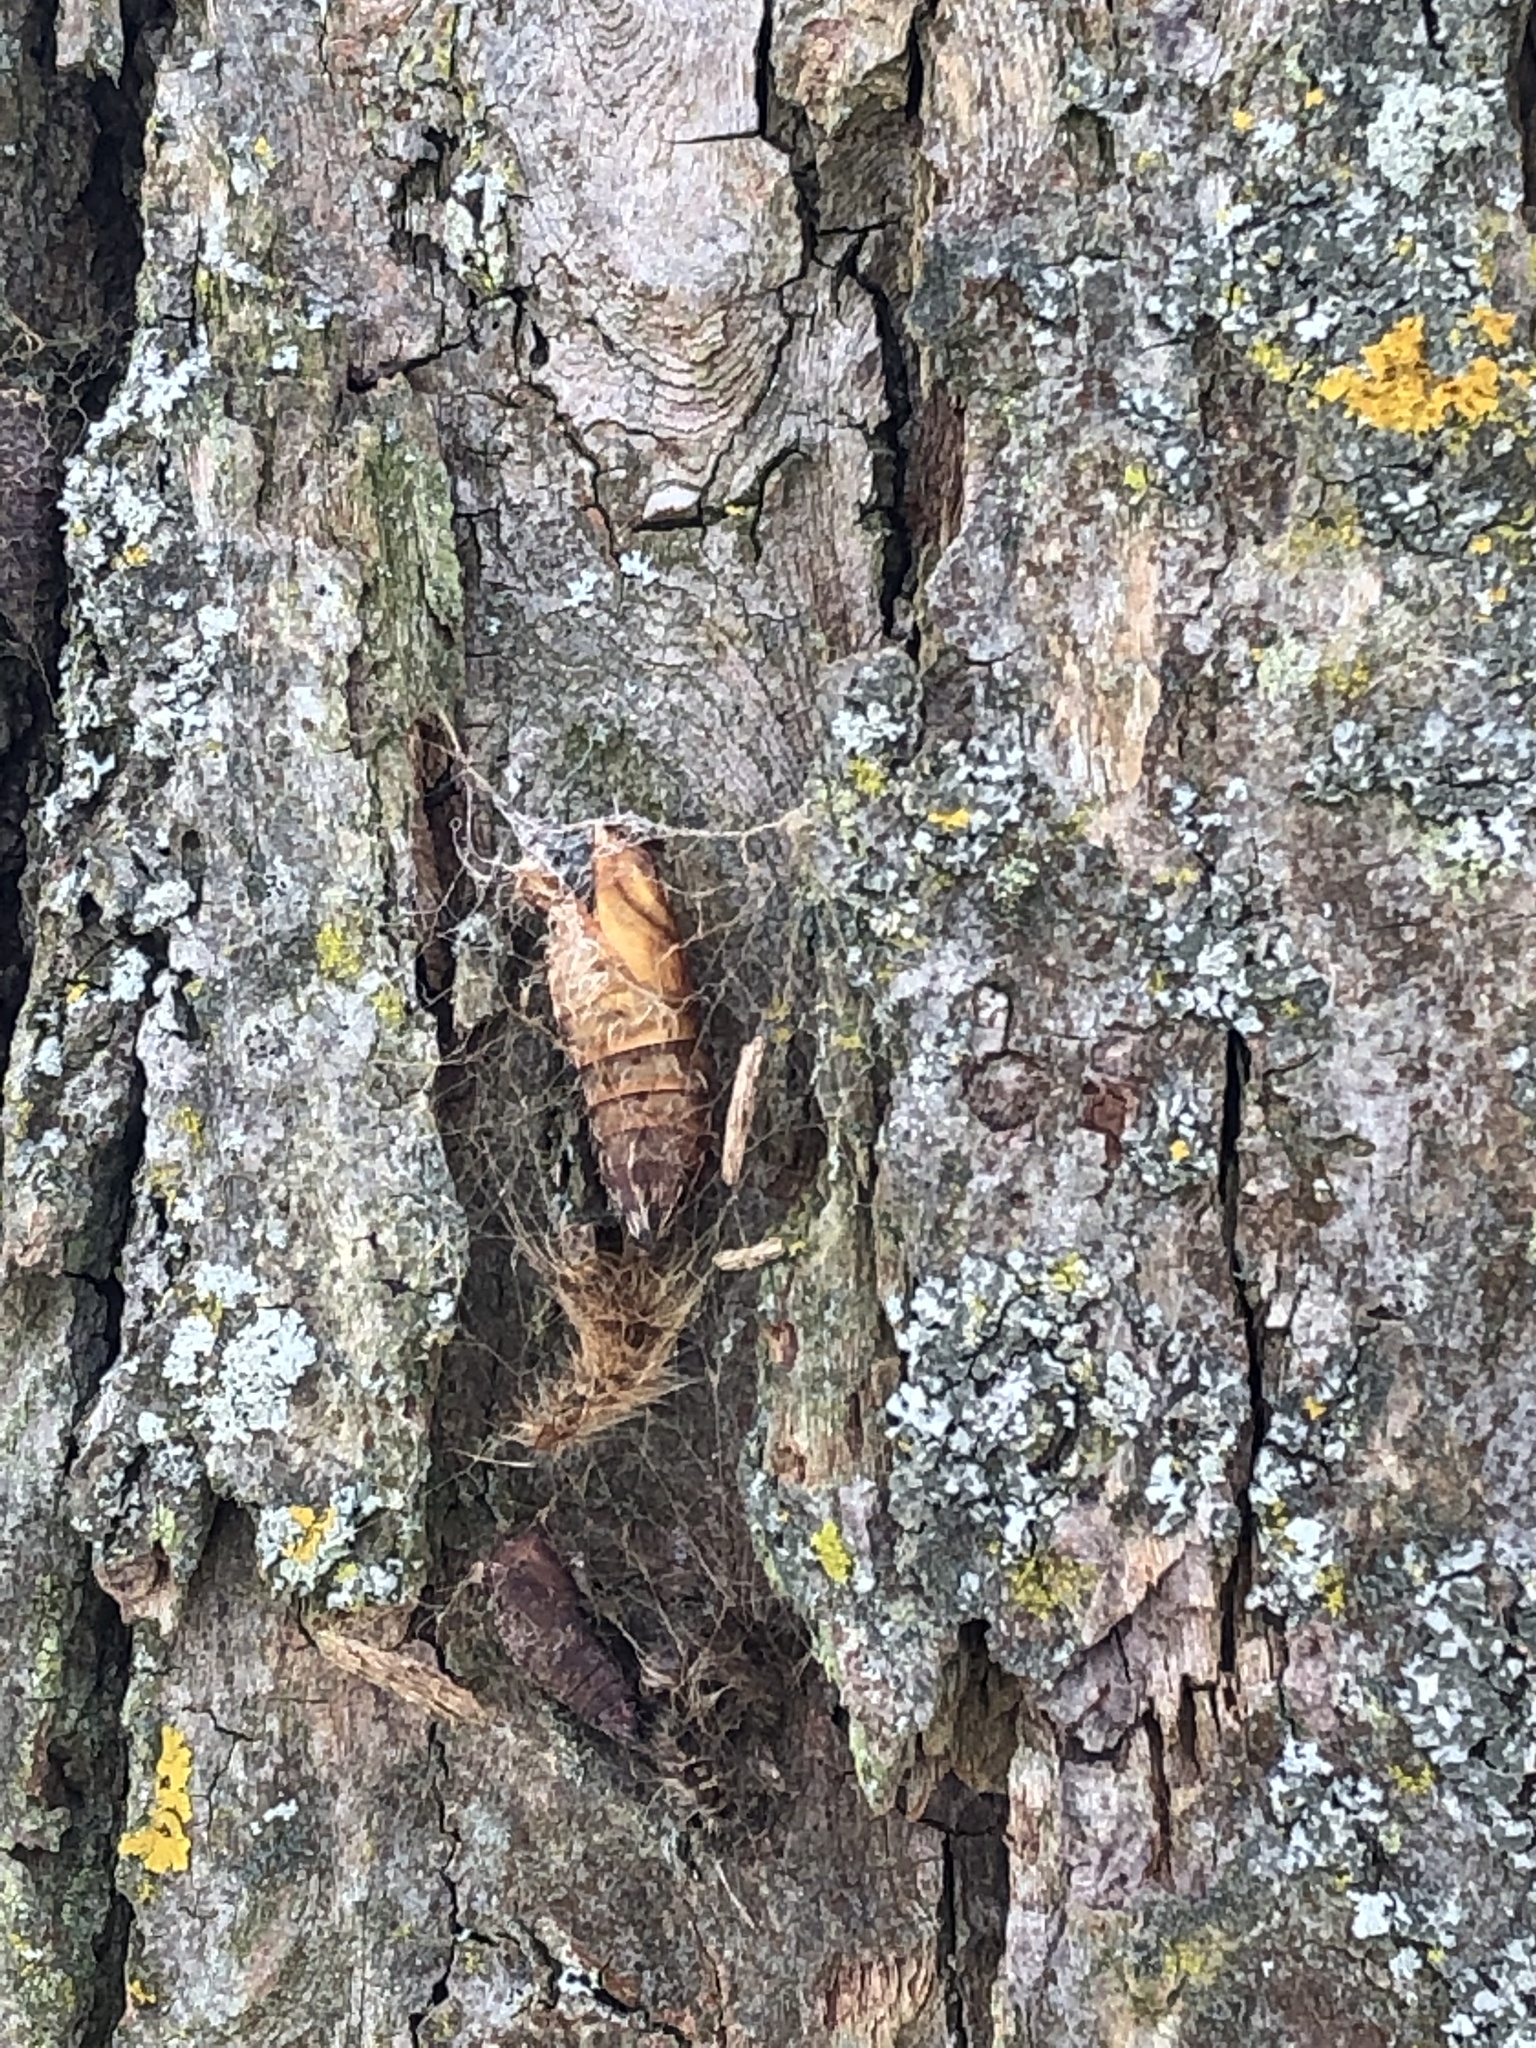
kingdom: Animalia
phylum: Arthropoda
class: Insecta
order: Lepidoptera
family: Erebidae
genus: Lymantria
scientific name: Lymantria dispar
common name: Gypsy moth
